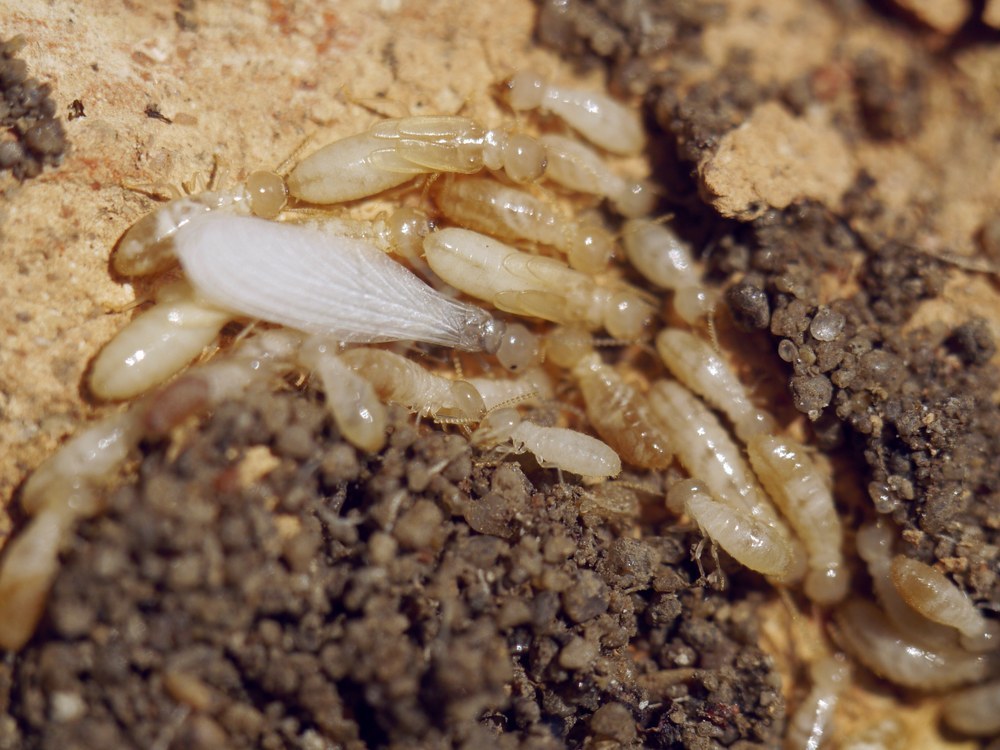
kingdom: Animalia
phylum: Arthropoda
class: Insecta
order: Blattodea
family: Rhinotermitidae
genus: Reticulitermes
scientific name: Reticulitermes lucifugus
